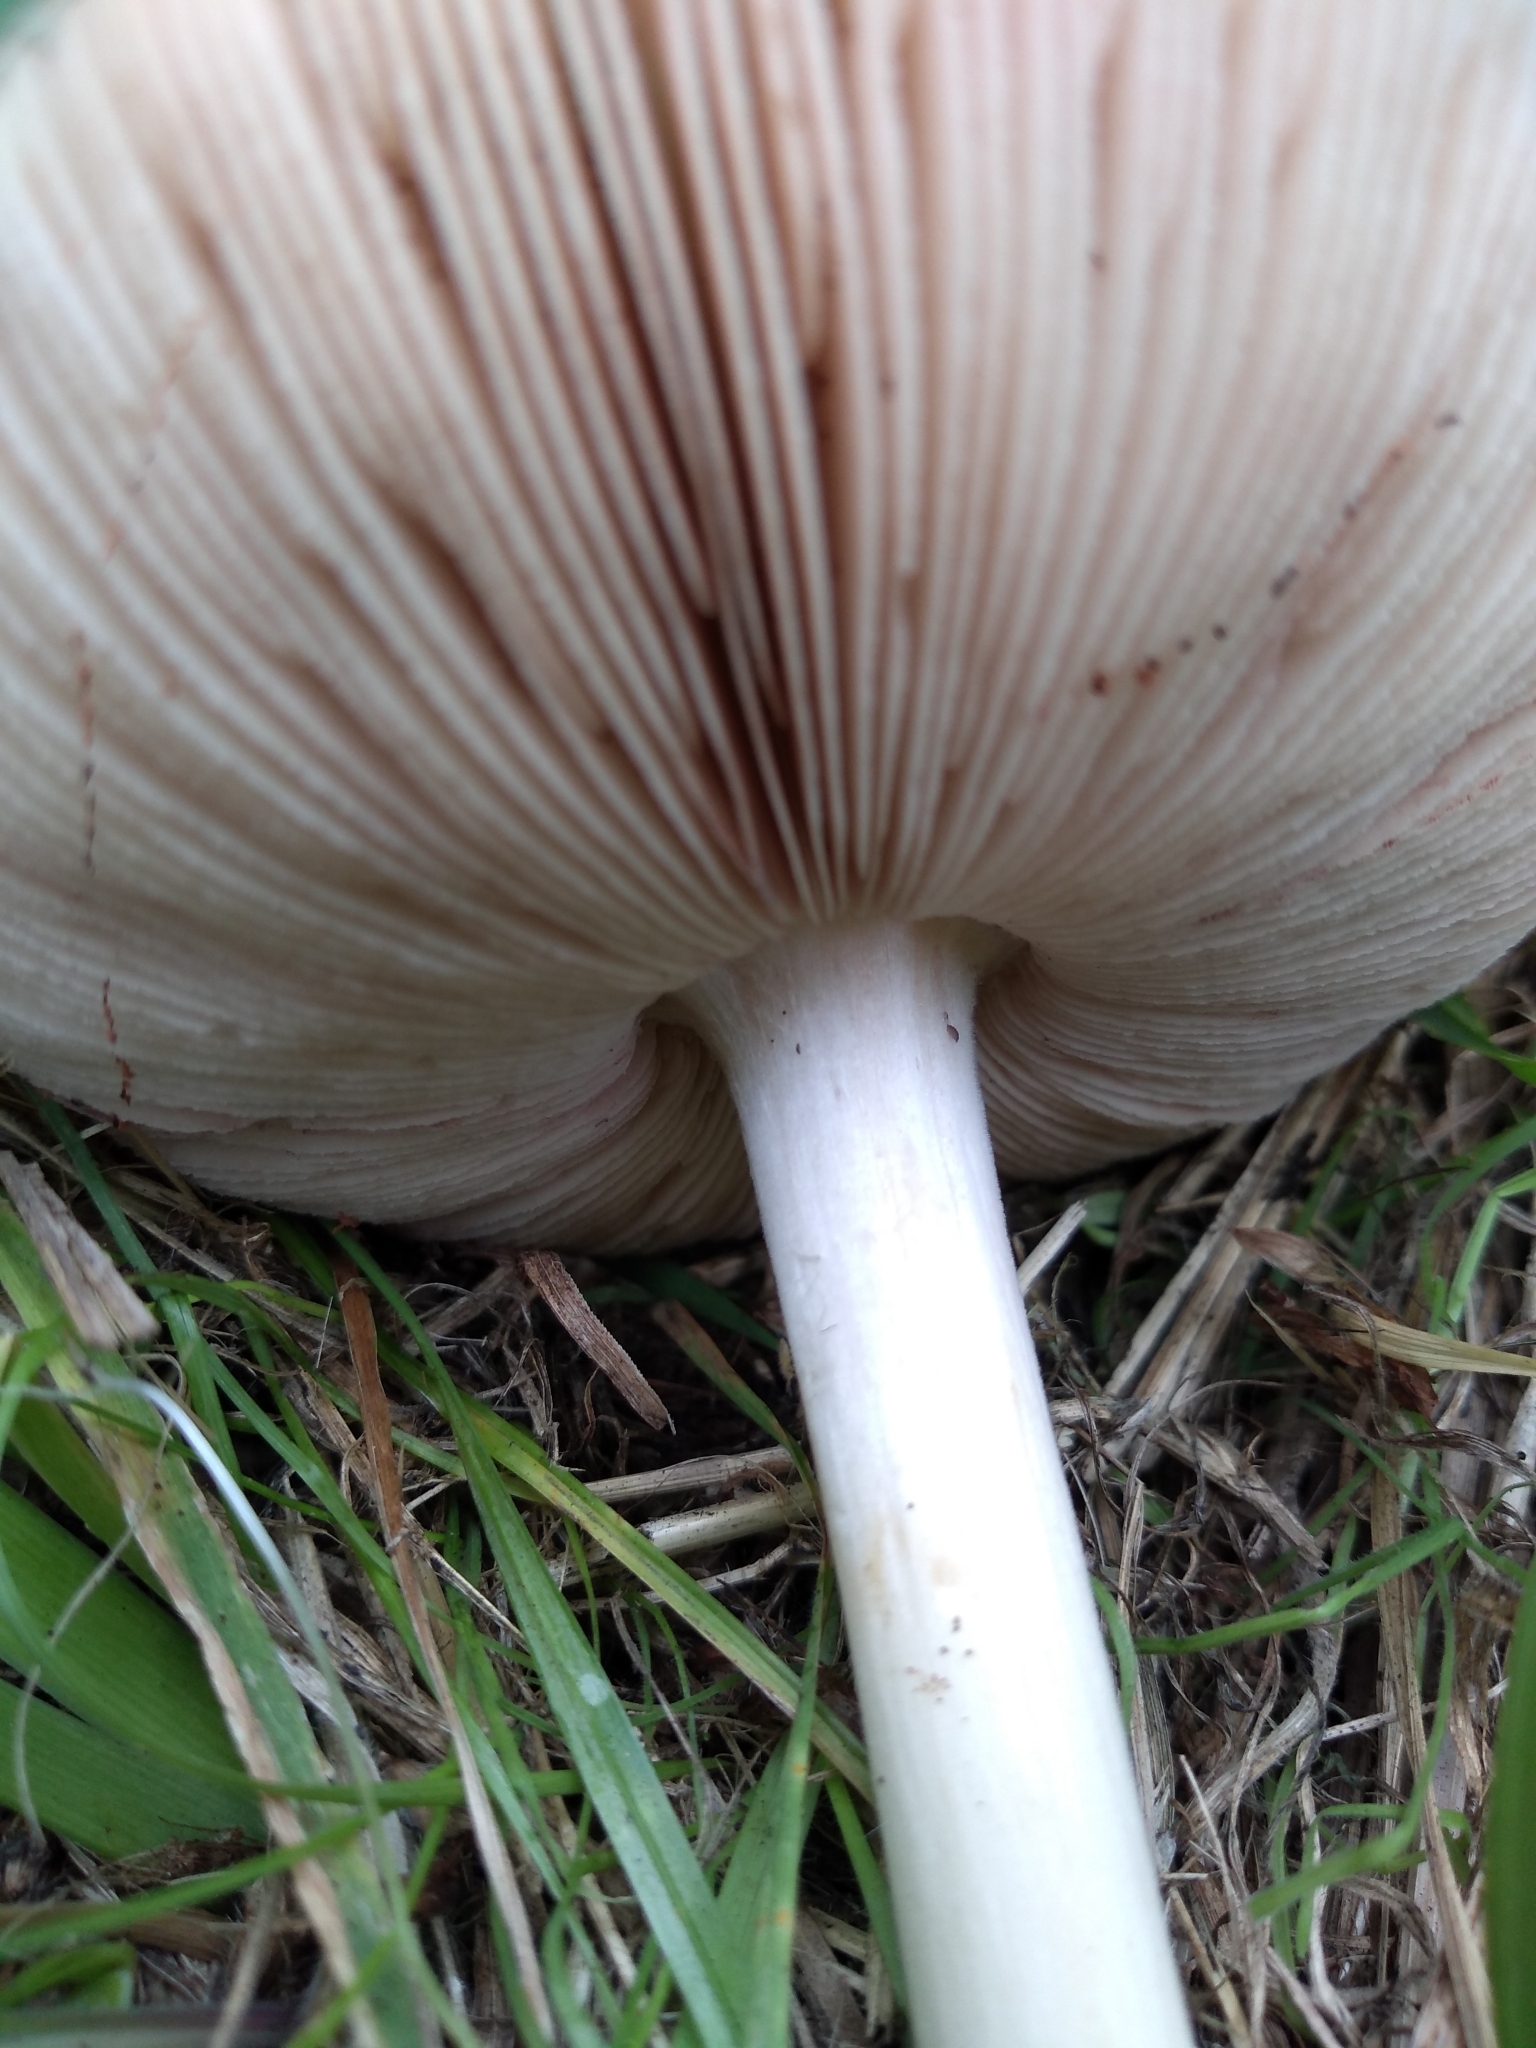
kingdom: Fungi
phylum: Basidiomycota
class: Agaricomycetes
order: Agaricales
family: Pluteaceae
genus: Volvopluteus
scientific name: Volvopluteus gloiocephalus
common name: Stubble rosegill
